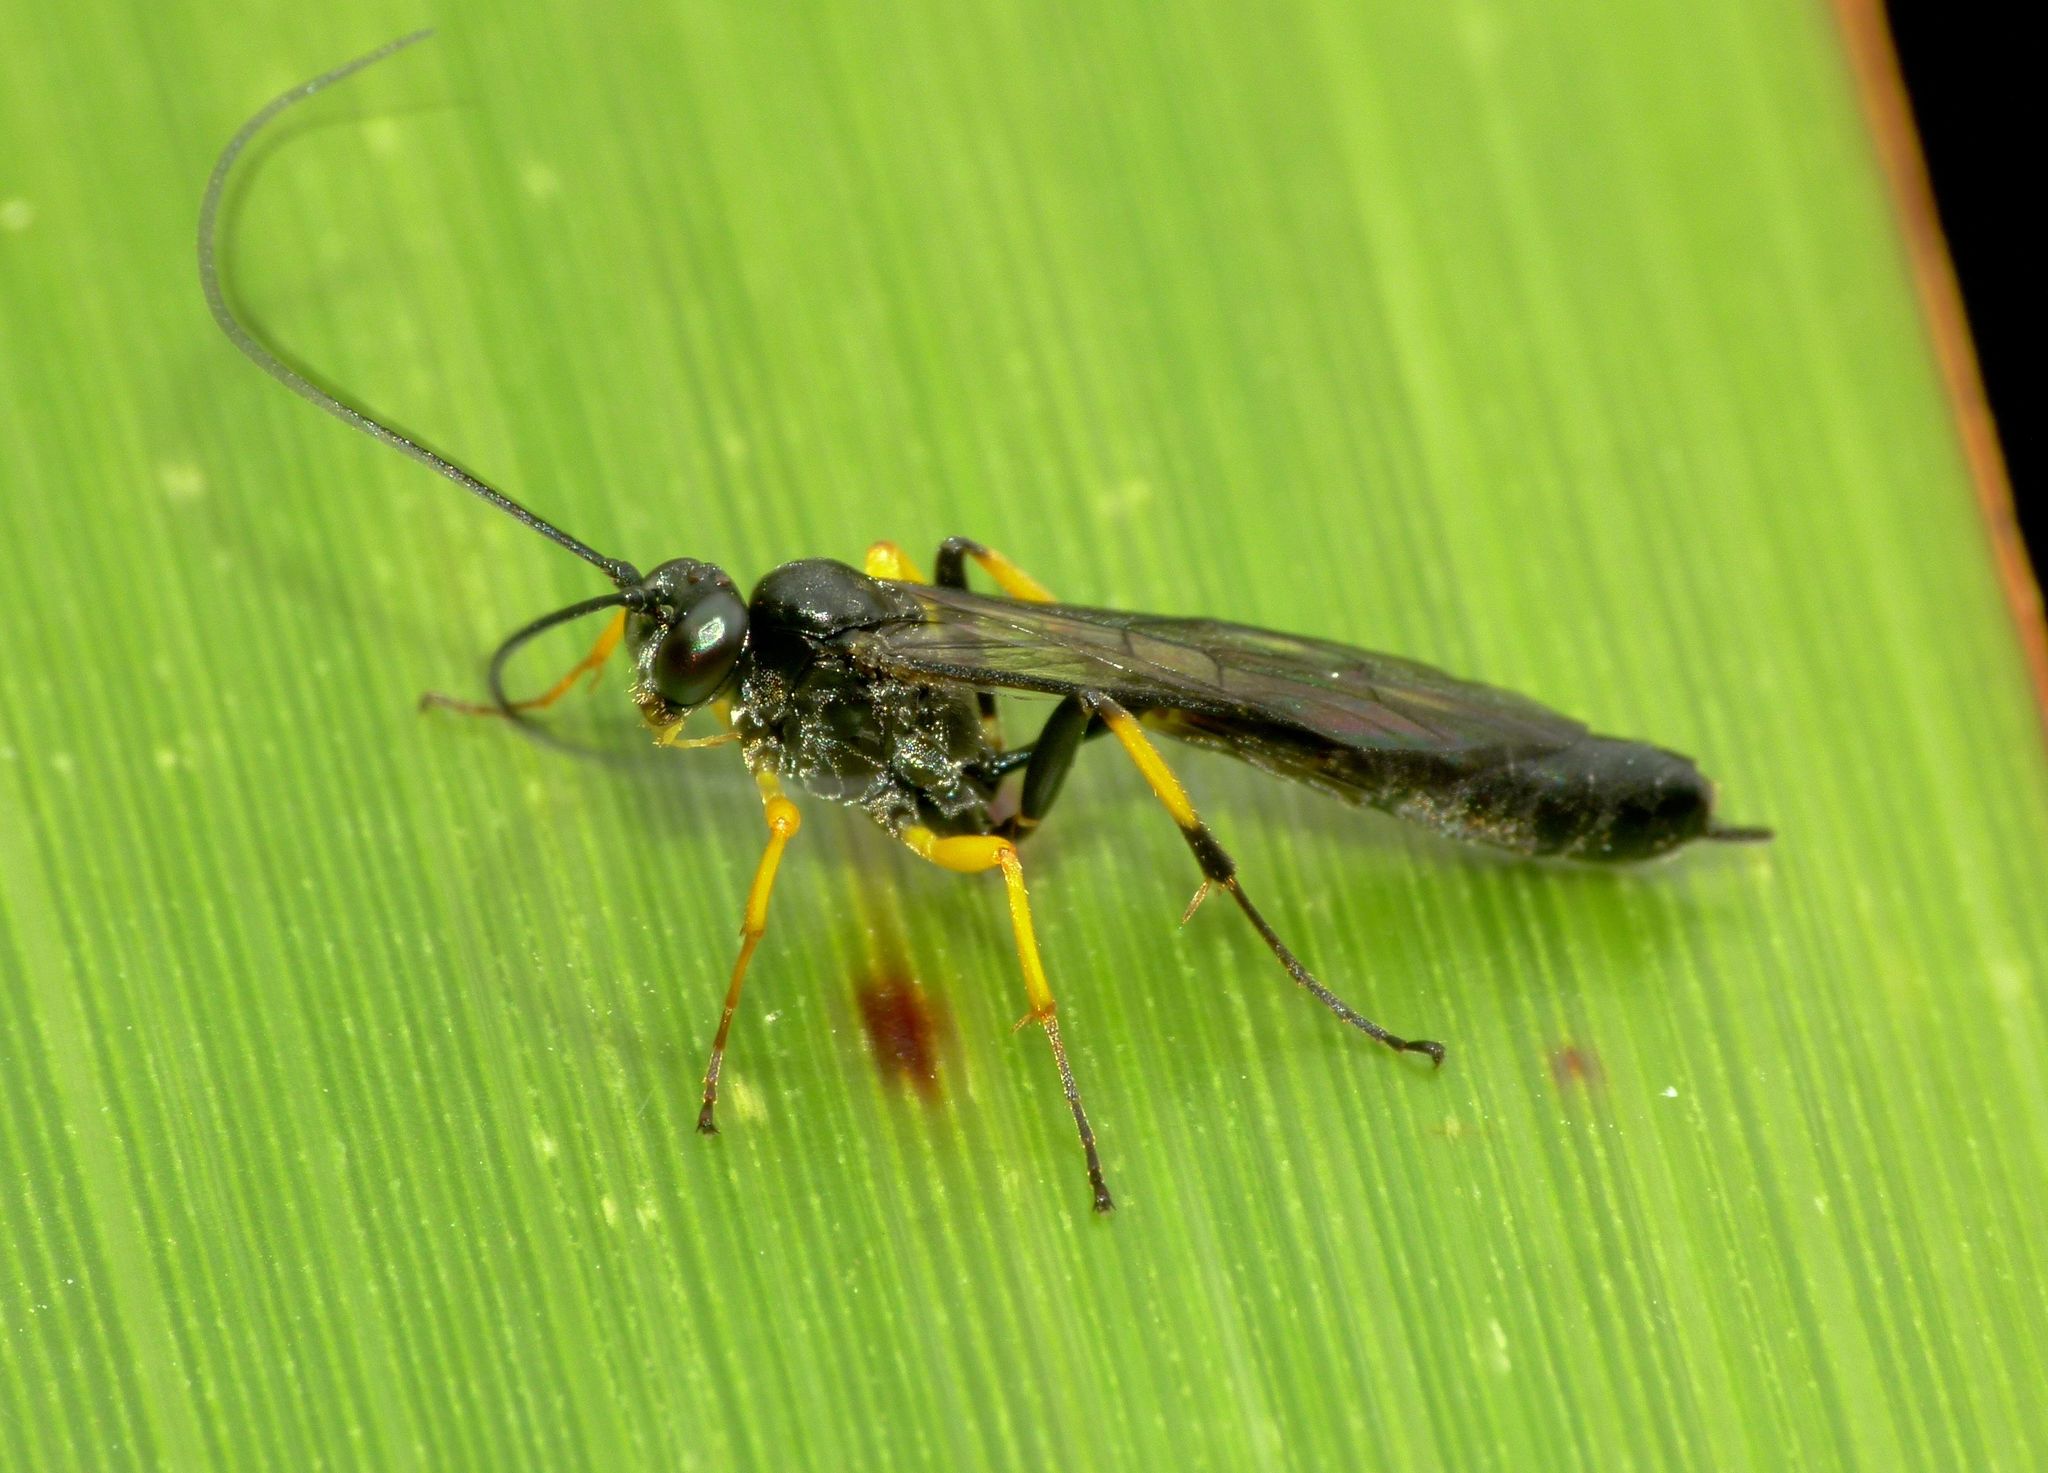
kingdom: Animalia
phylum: Arthropoda
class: Insecta
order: Hymenoptera
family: Ichneumonidae
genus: Dusona
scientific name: Dusona stramineipes
